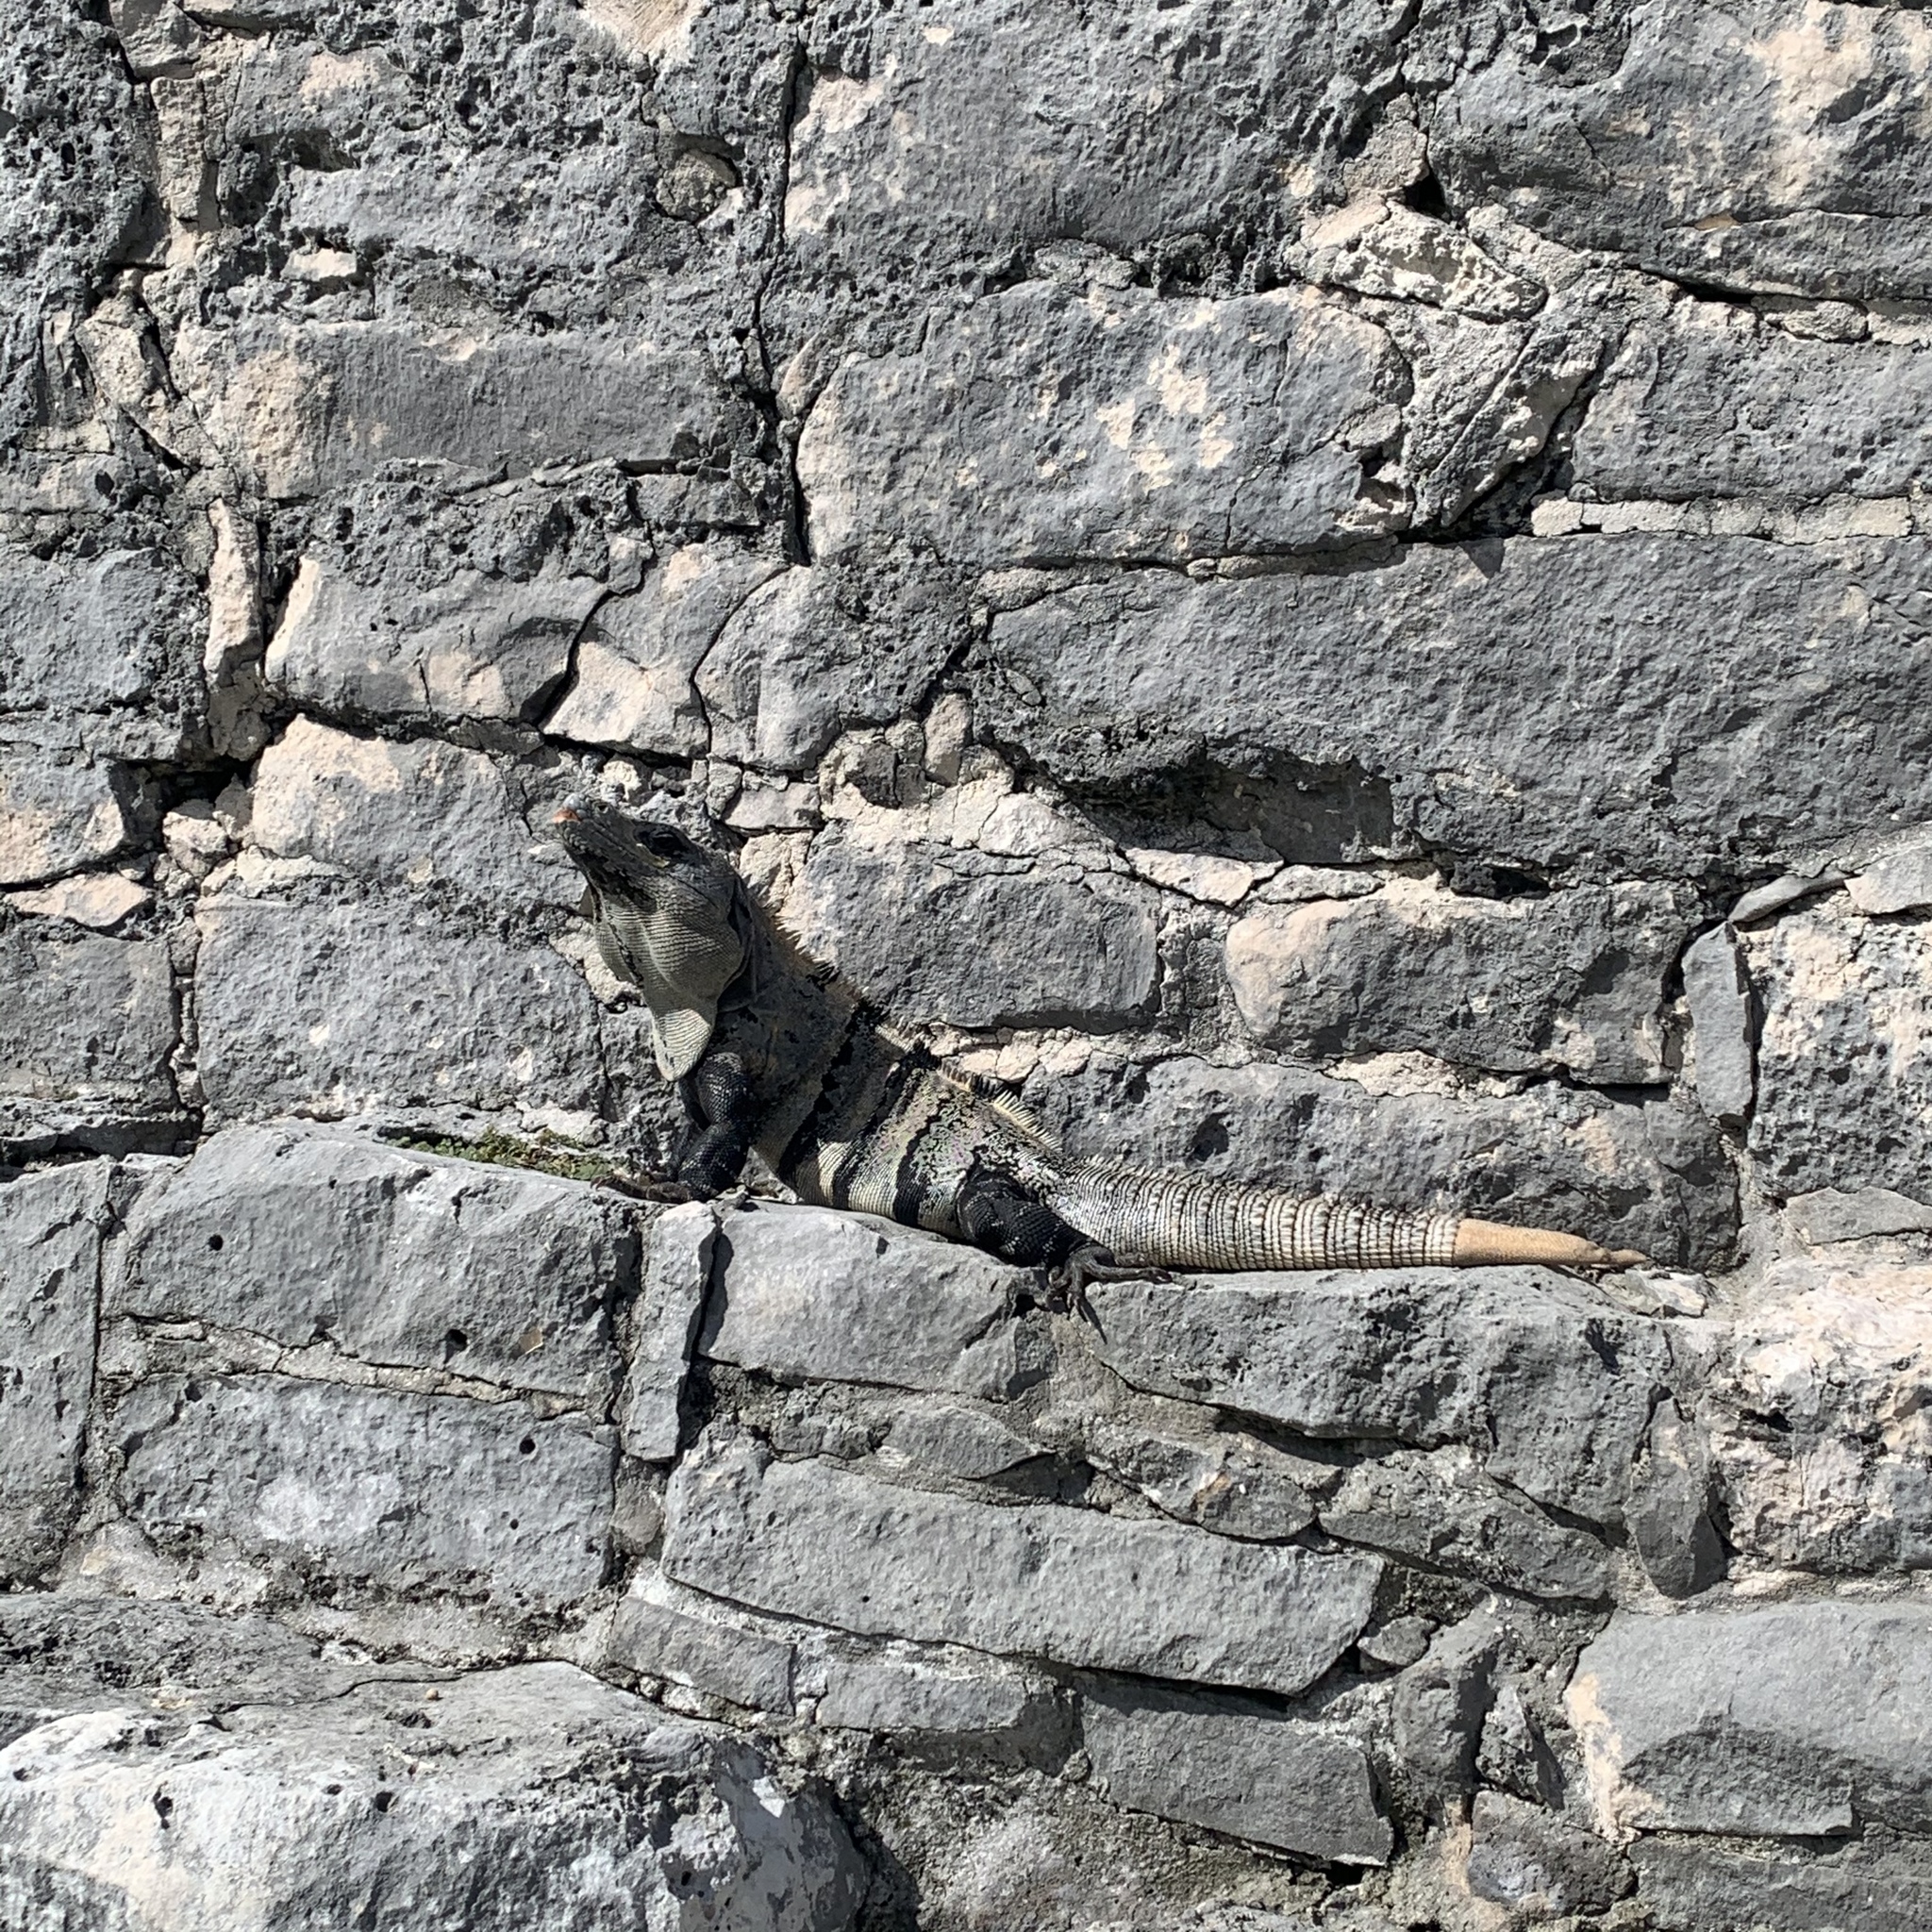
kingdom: Animalia
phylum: Chordata
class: Squamata
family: Iguanidae
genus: Ctenosaura
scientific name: Ctenosaura similis
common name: Black spiny-tailed iguana
